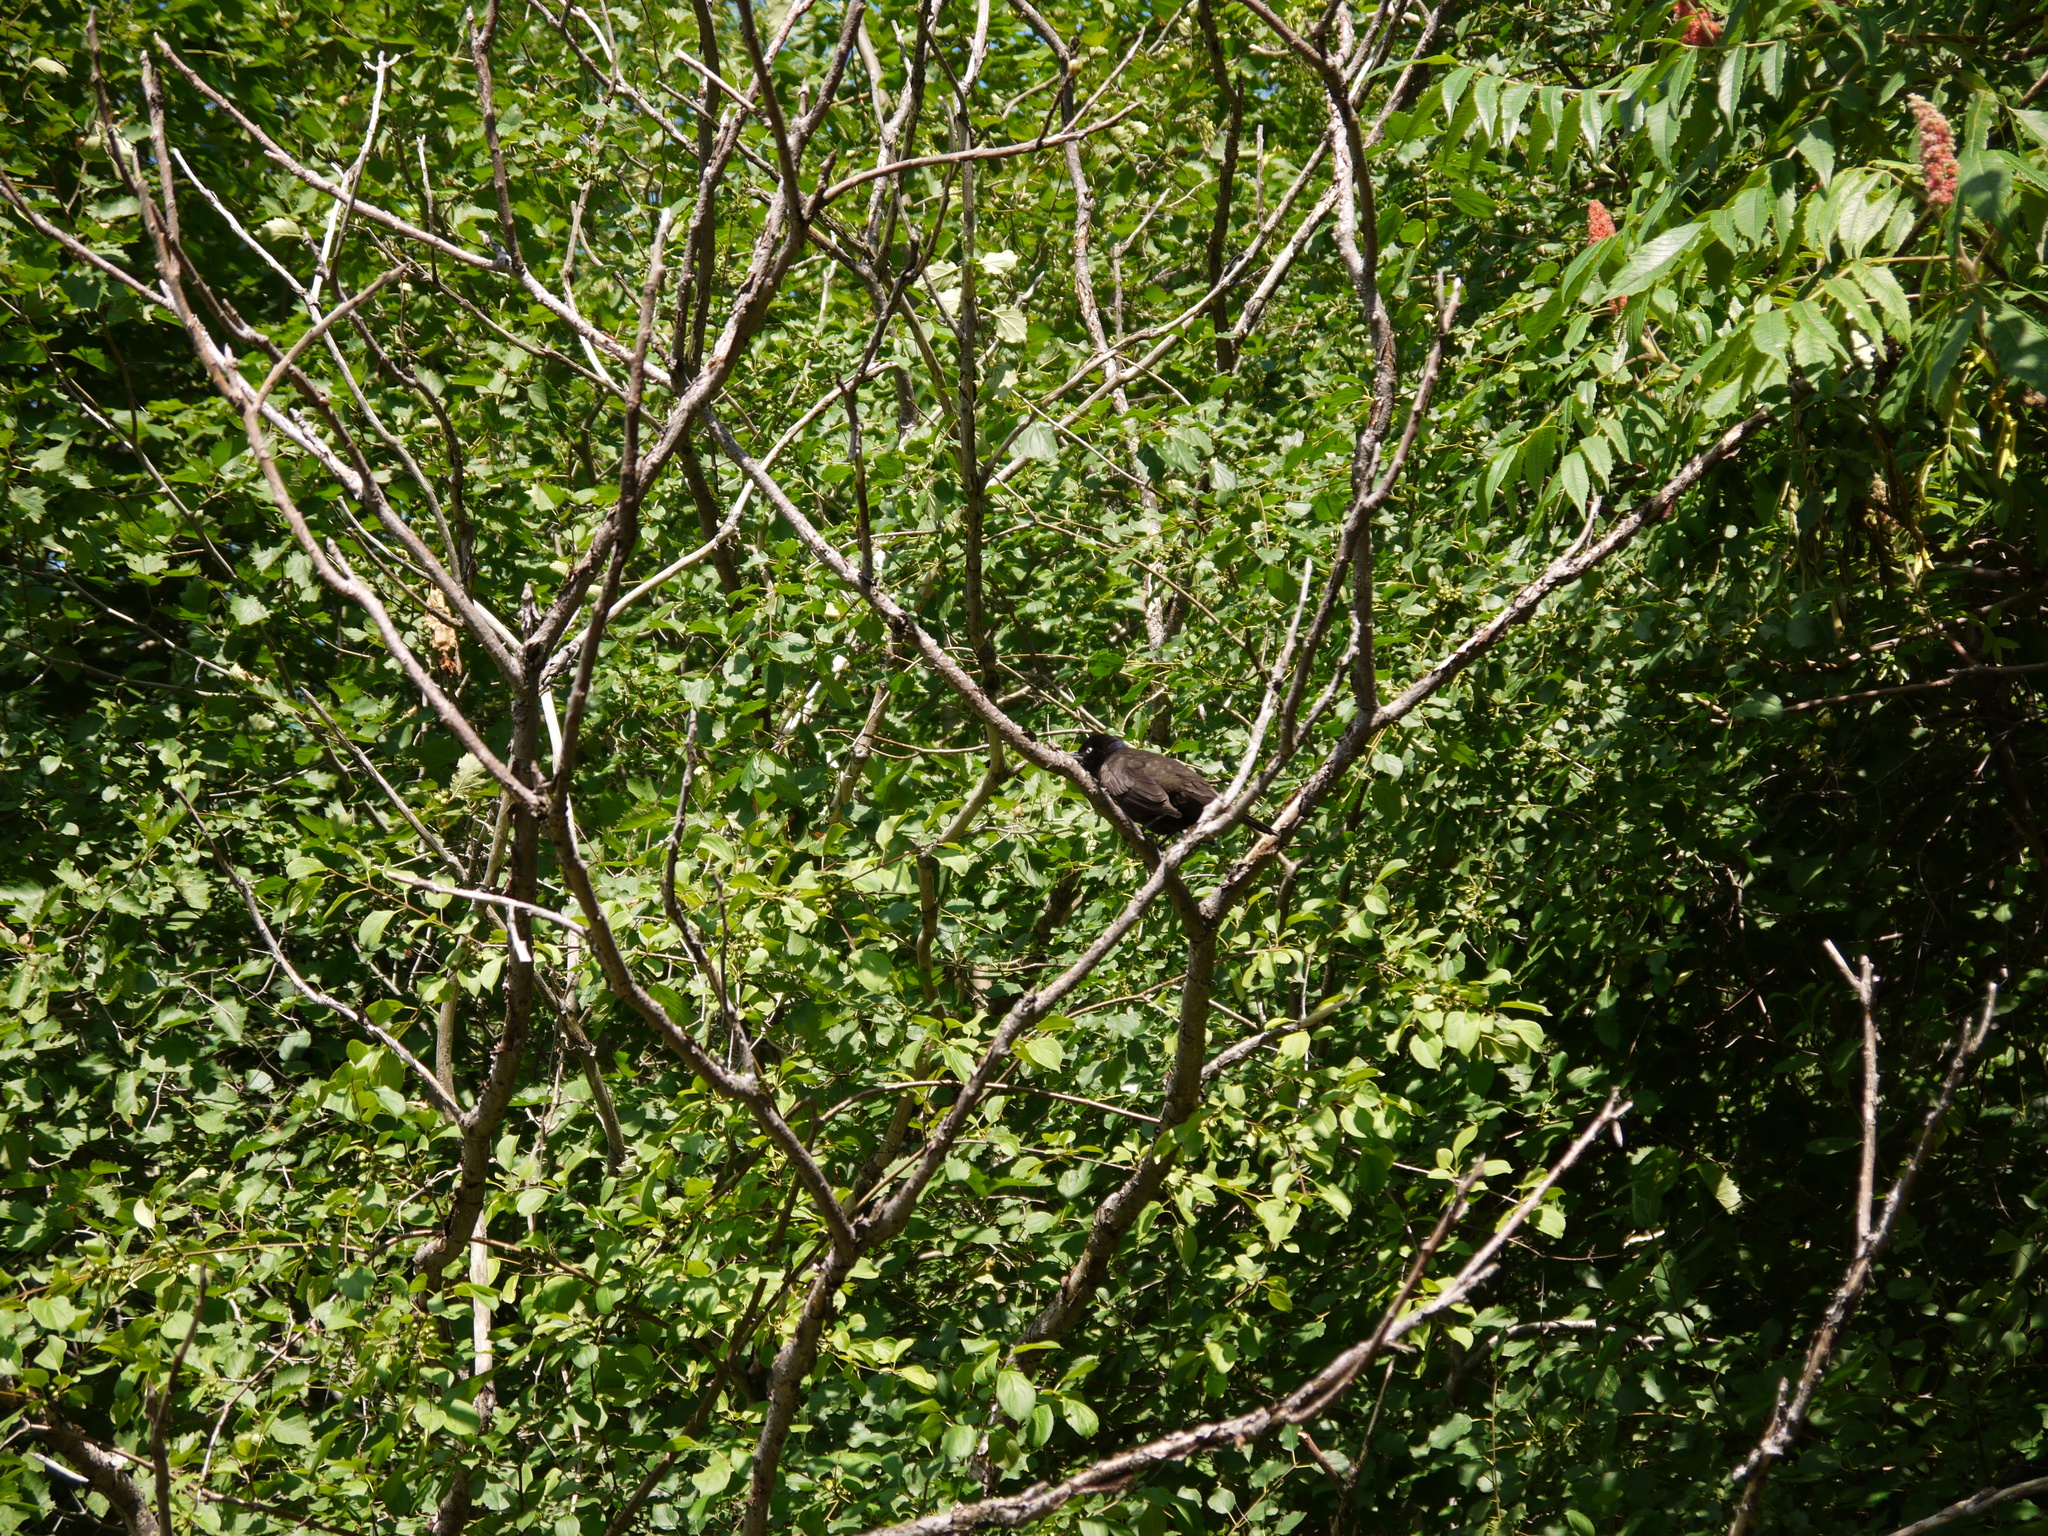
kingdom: Animalia
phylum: Chordata
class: Aves
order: Passeriformes
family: Icteridae
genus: Quiscalus
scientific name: Quiscalus quiscula
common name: Common grackle
